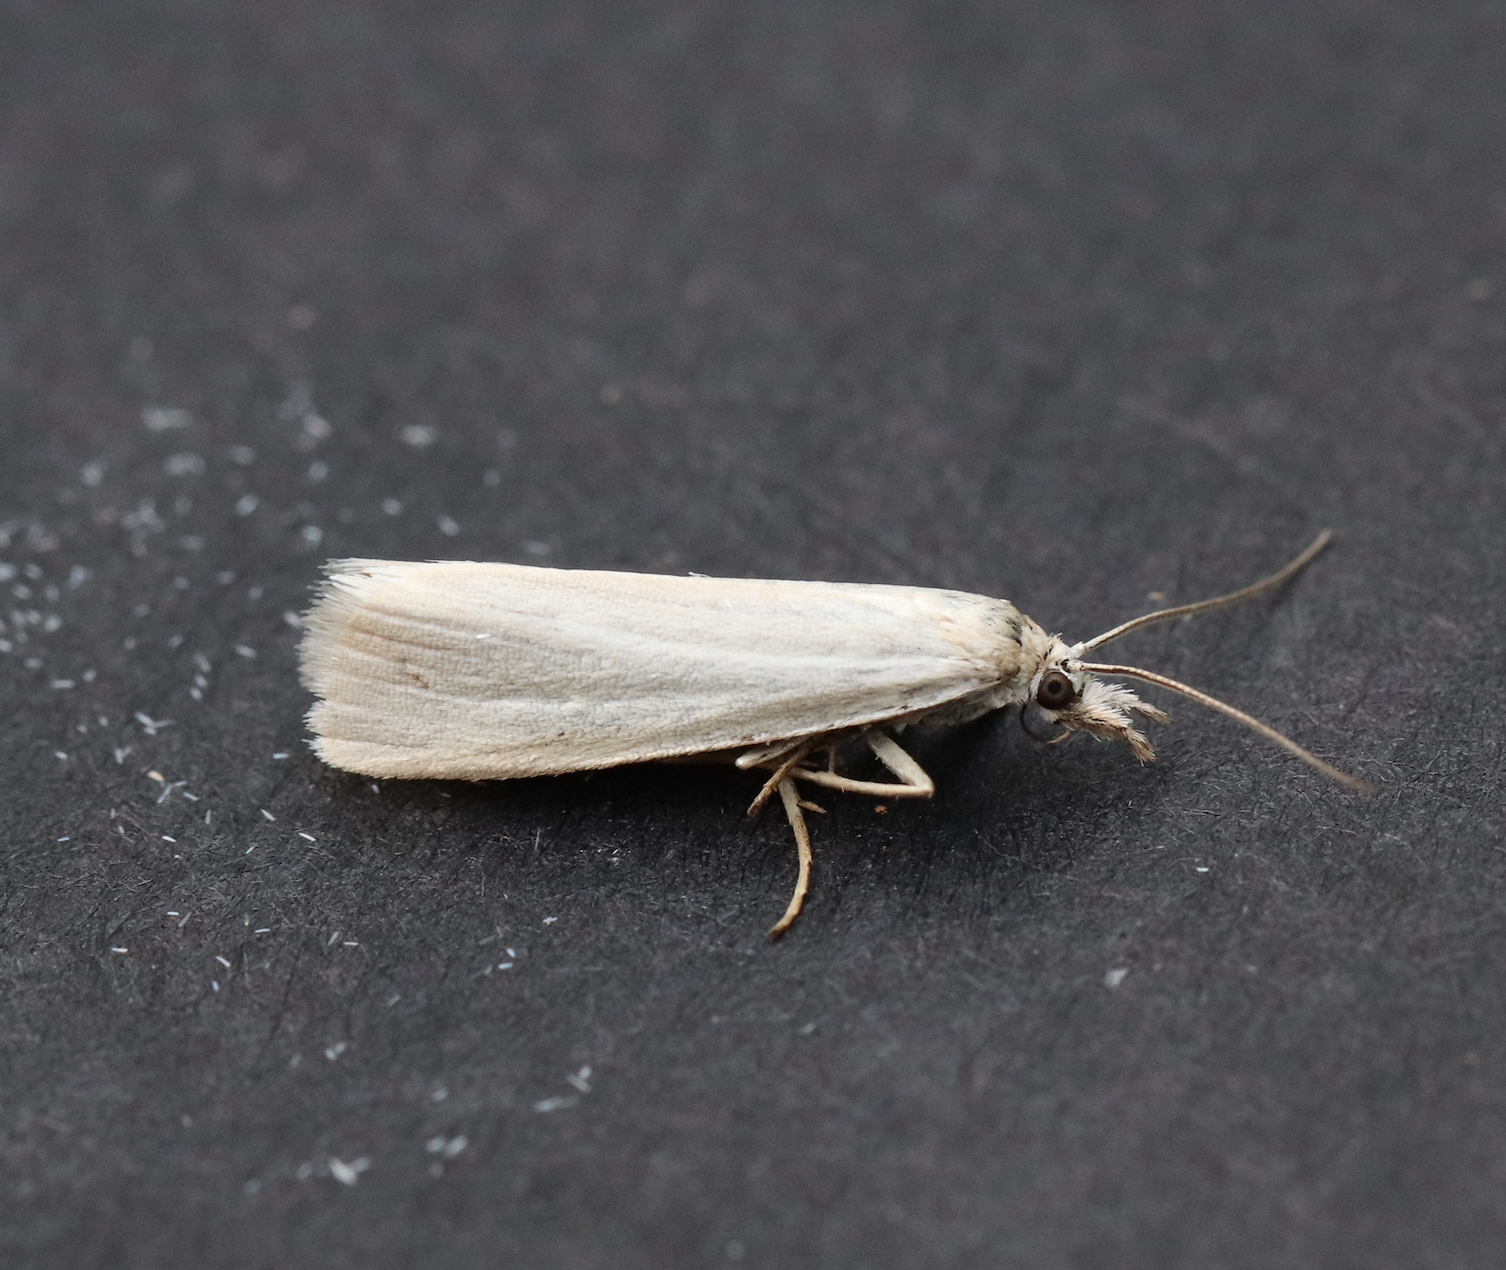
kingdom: Animalia
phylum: Arthropoda
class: Insecta
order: Lepidoptera
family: Crambidae
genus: Crambus
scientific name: Crambus perlellus
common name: Yellow satin veneer
